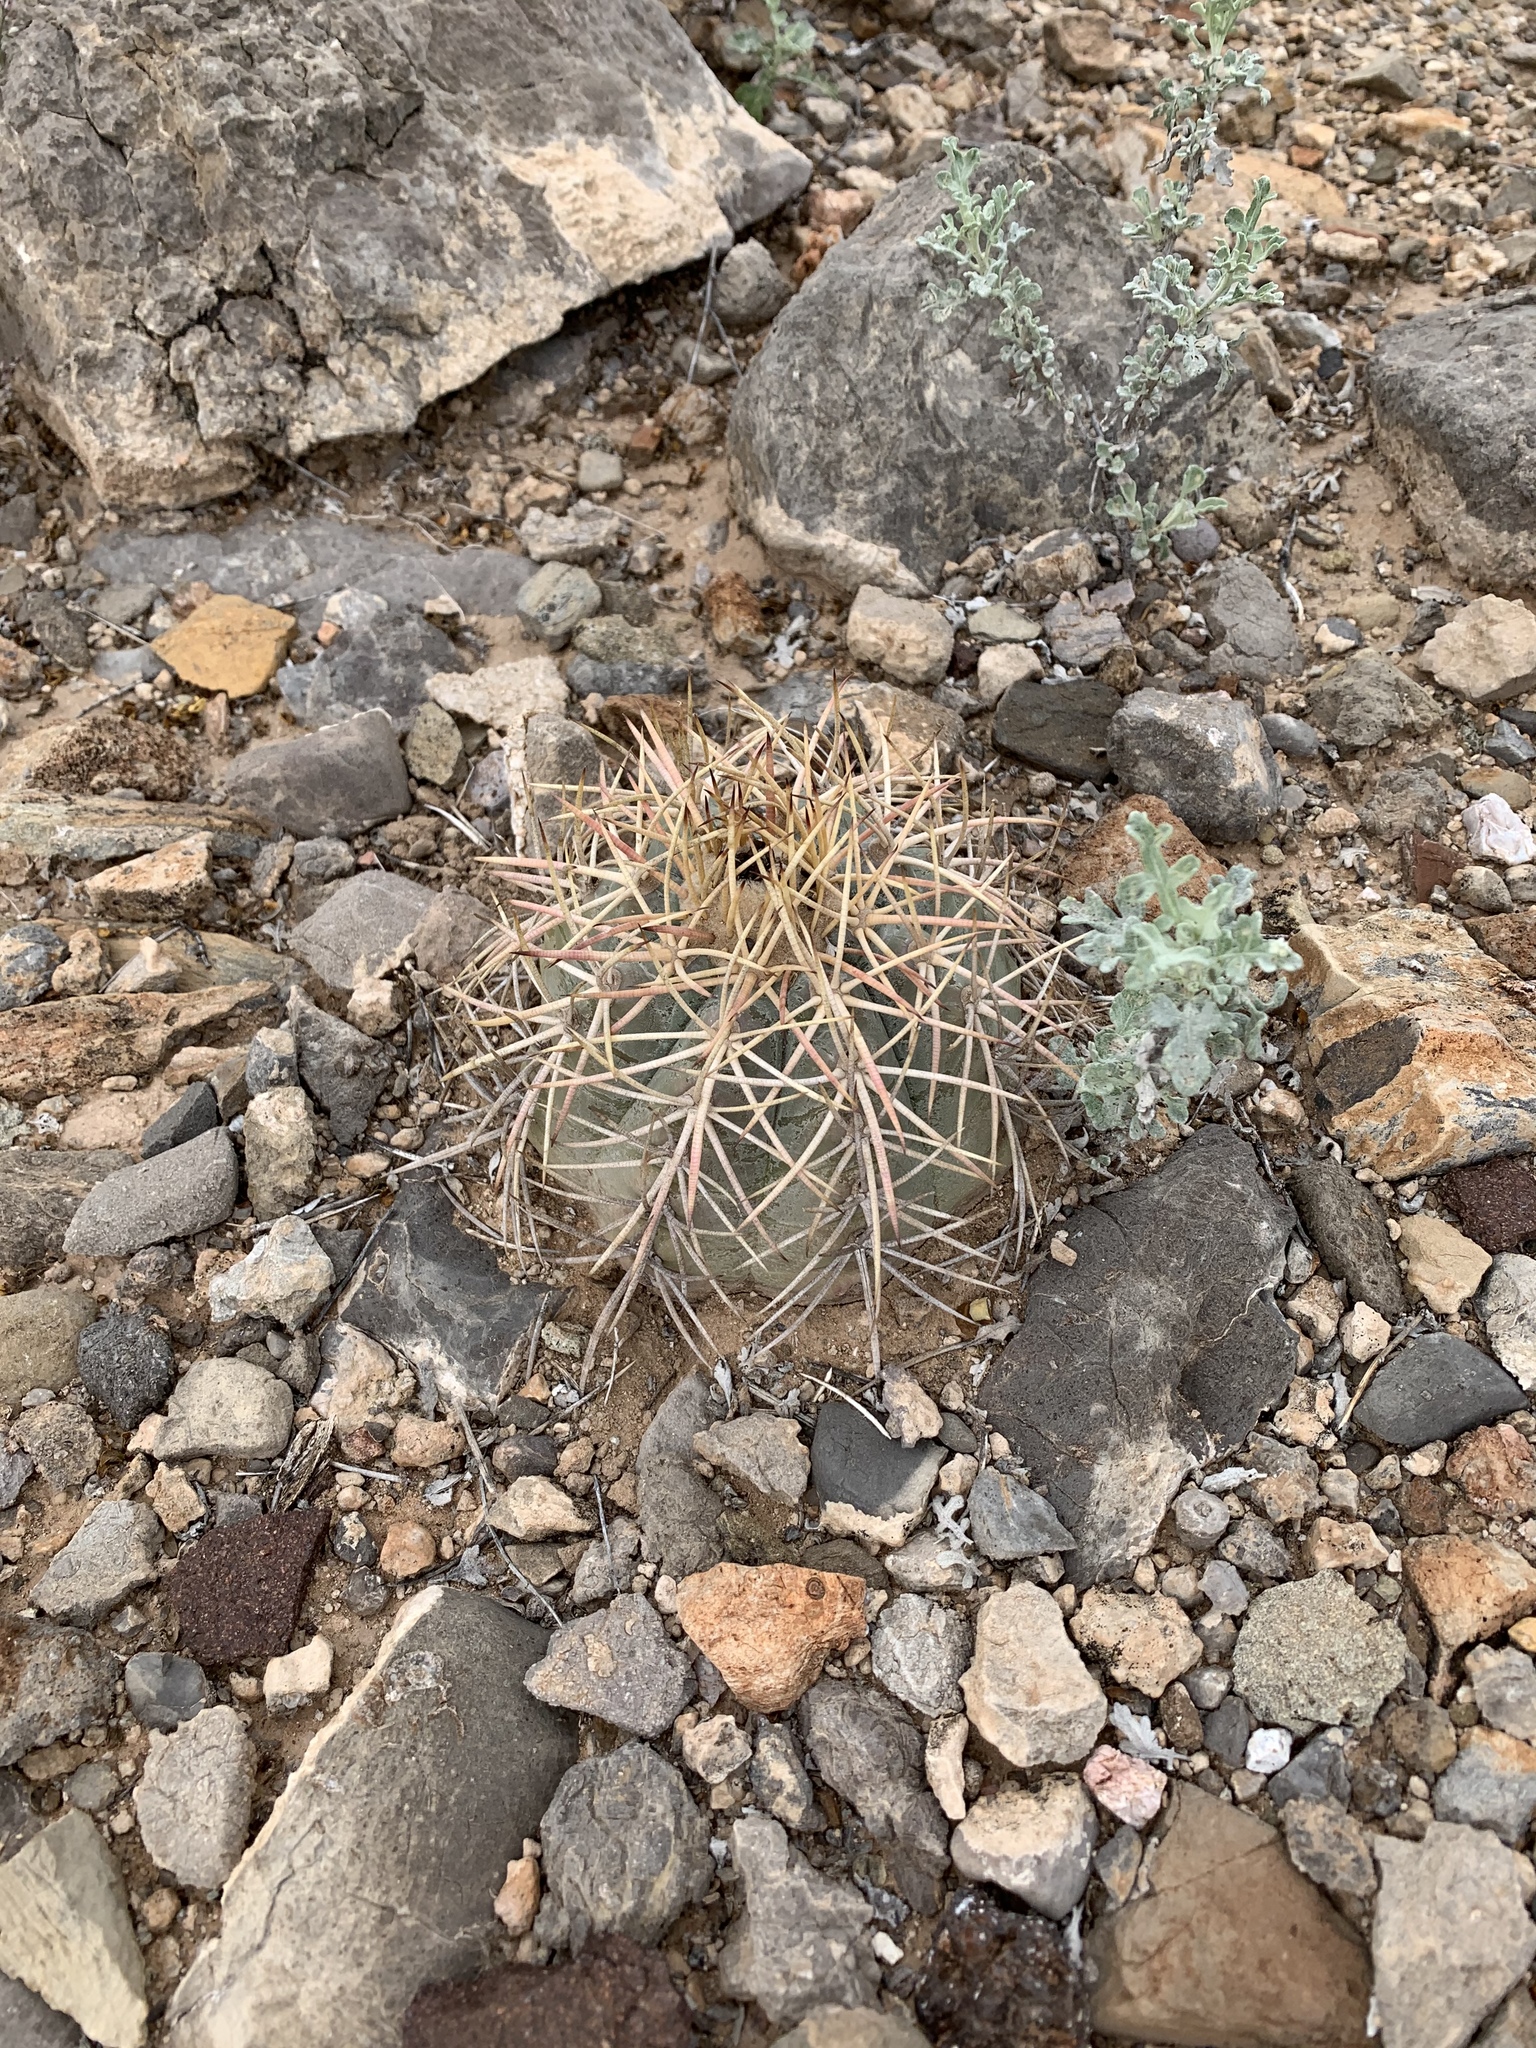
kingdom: Plantae
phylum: Tracheophyta
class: Magnoliopsida
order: Caryophyllales
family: Cactaceae
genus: Echinocactus
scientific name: Echinocactus horizonthalonius
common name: Devilshead
